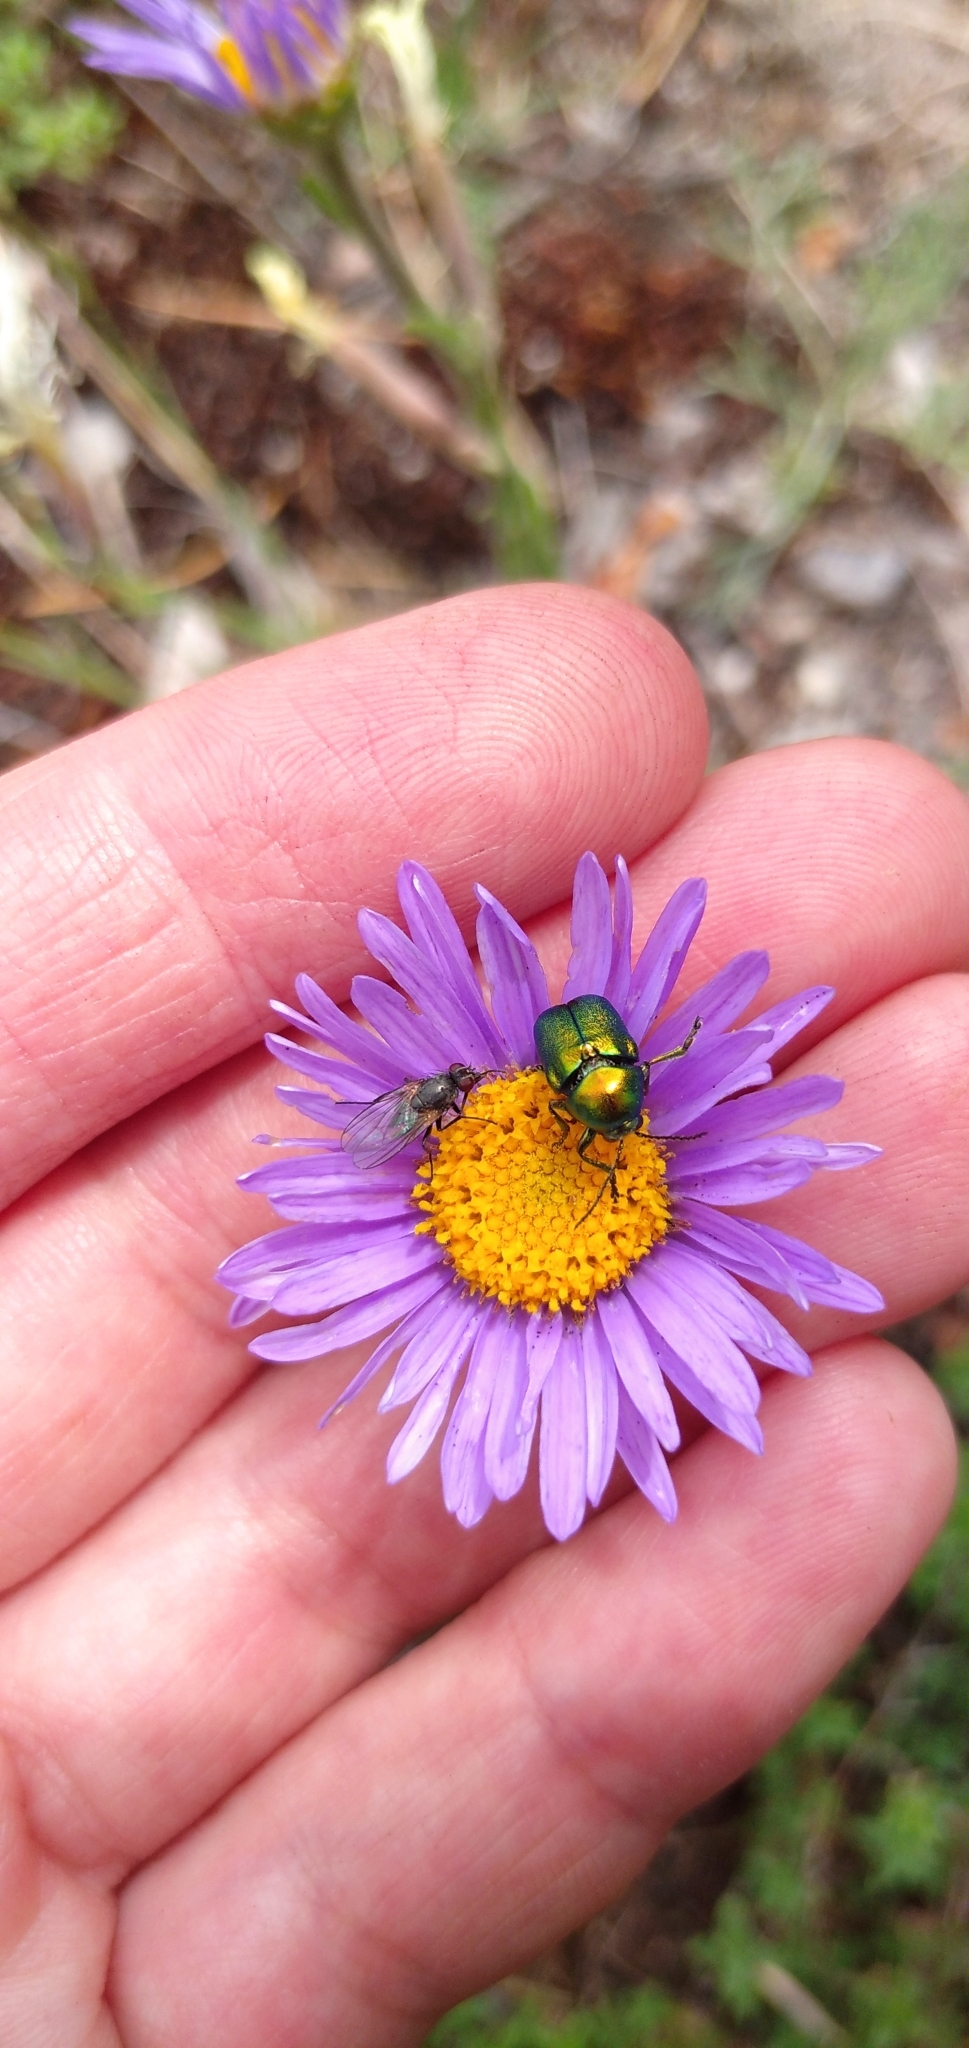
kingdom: Plantae
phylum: Tracheophyta
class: Magnoliopsida
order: Asterales
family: Asteraceae
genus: Aster
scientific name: Aster alpinus
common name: Alpine aster
